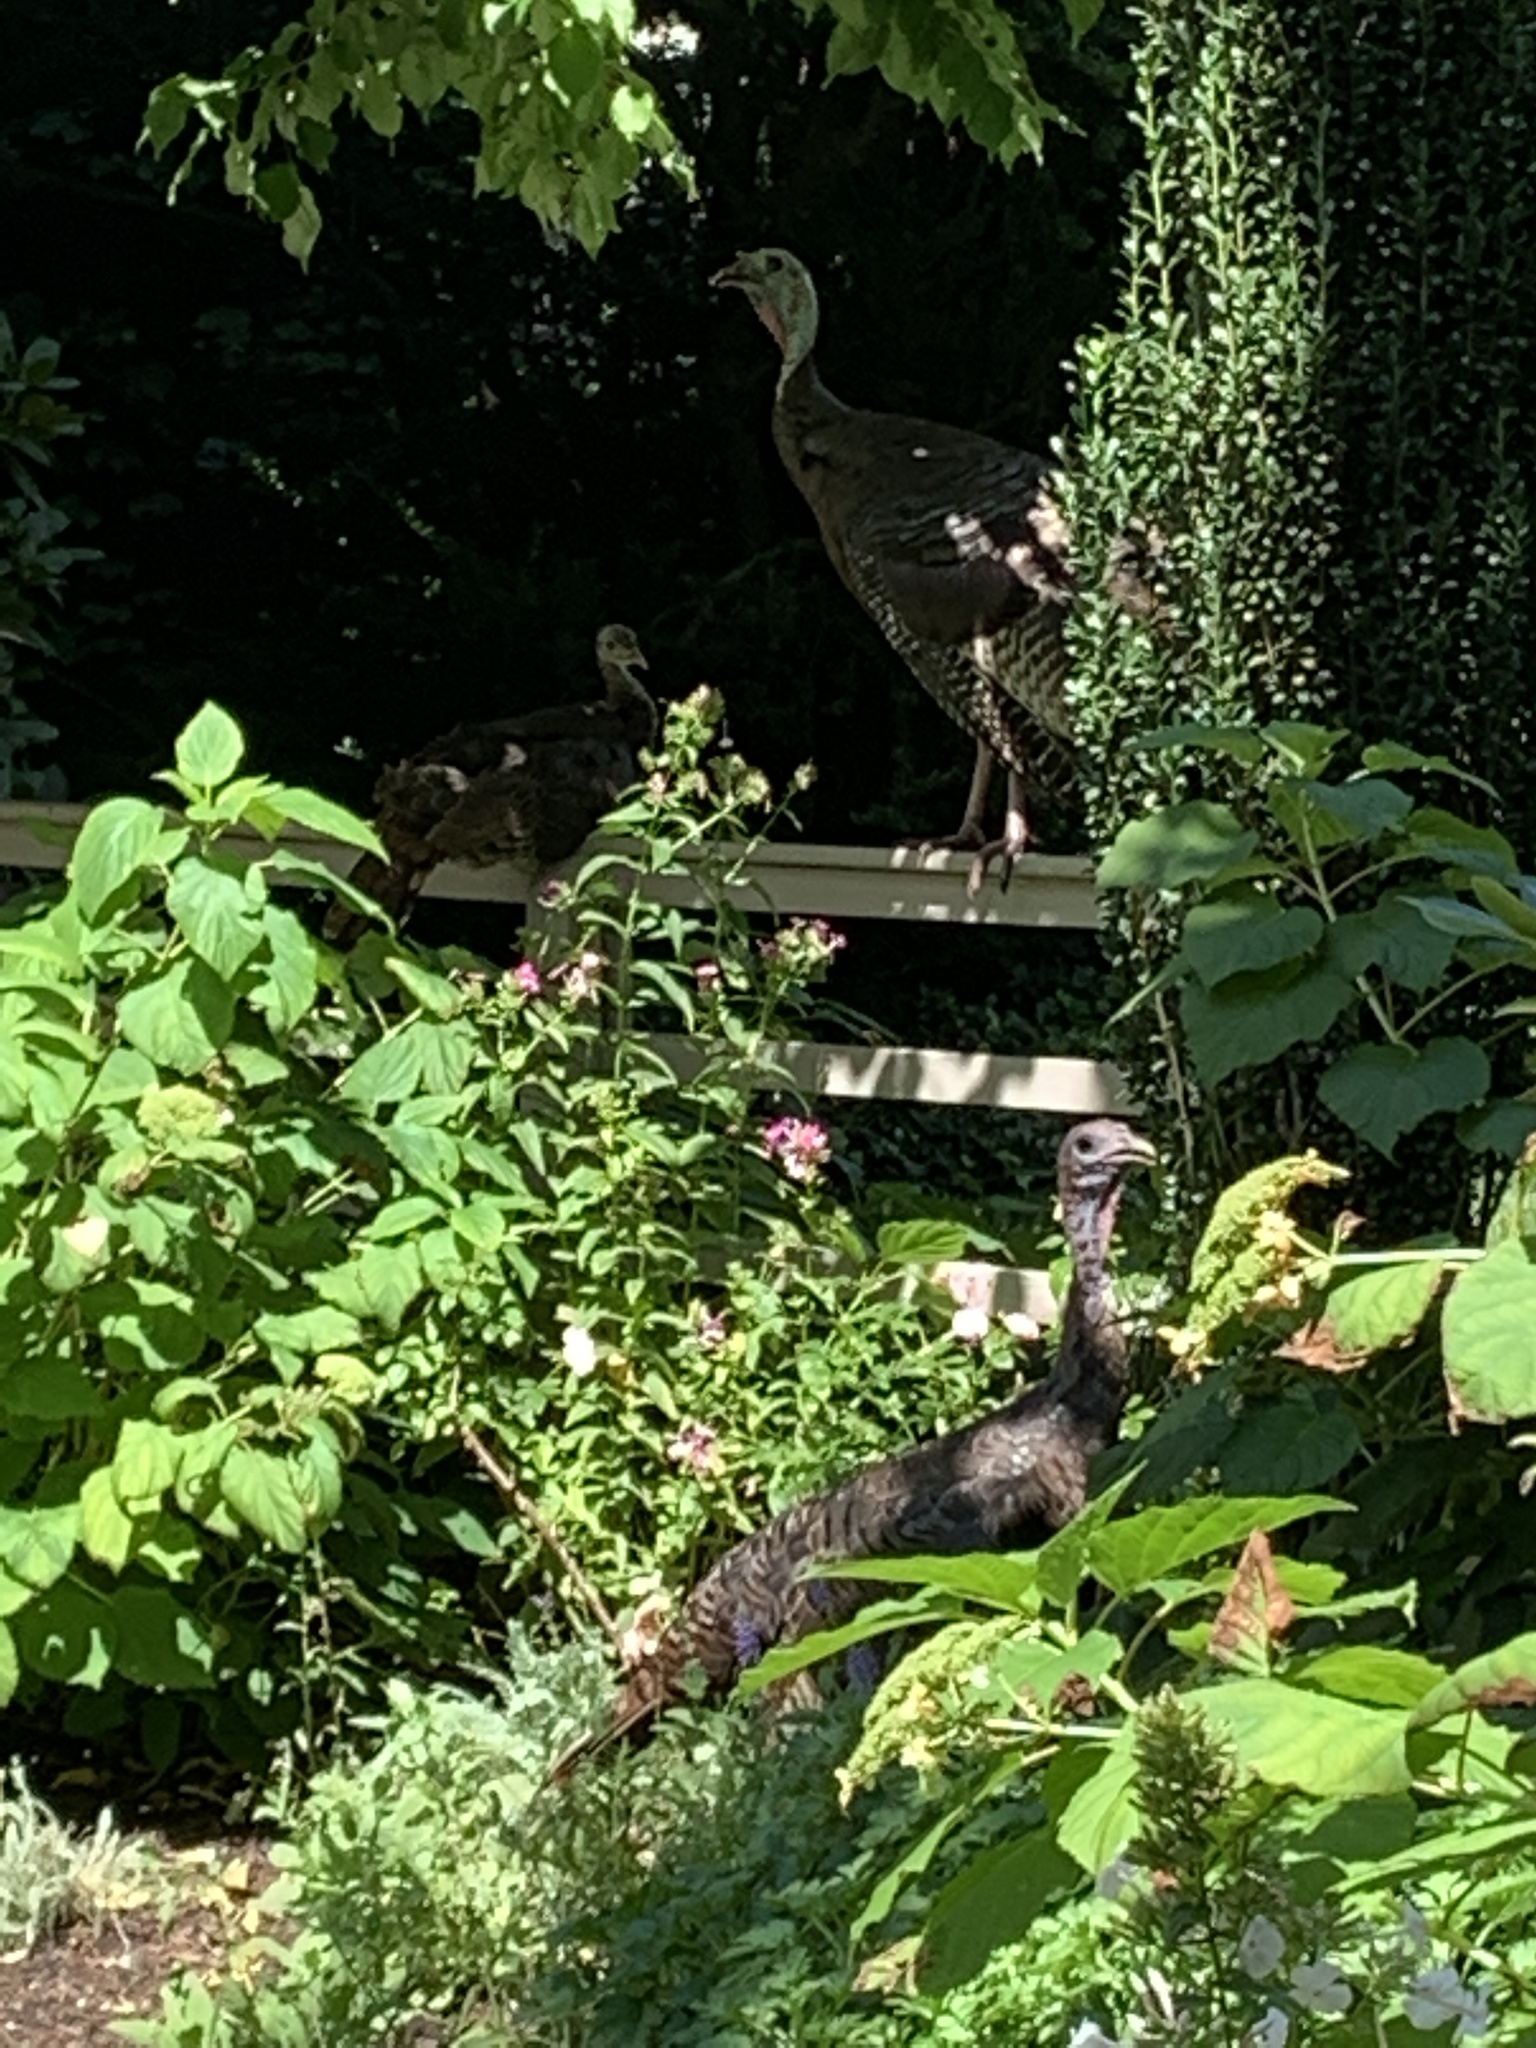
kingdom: Animalia
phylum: Chordata
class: Aves
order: Galliformes
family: Phasianidae
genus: Meleagris
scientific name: Meleagris gallopavo
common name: Wild turkey
